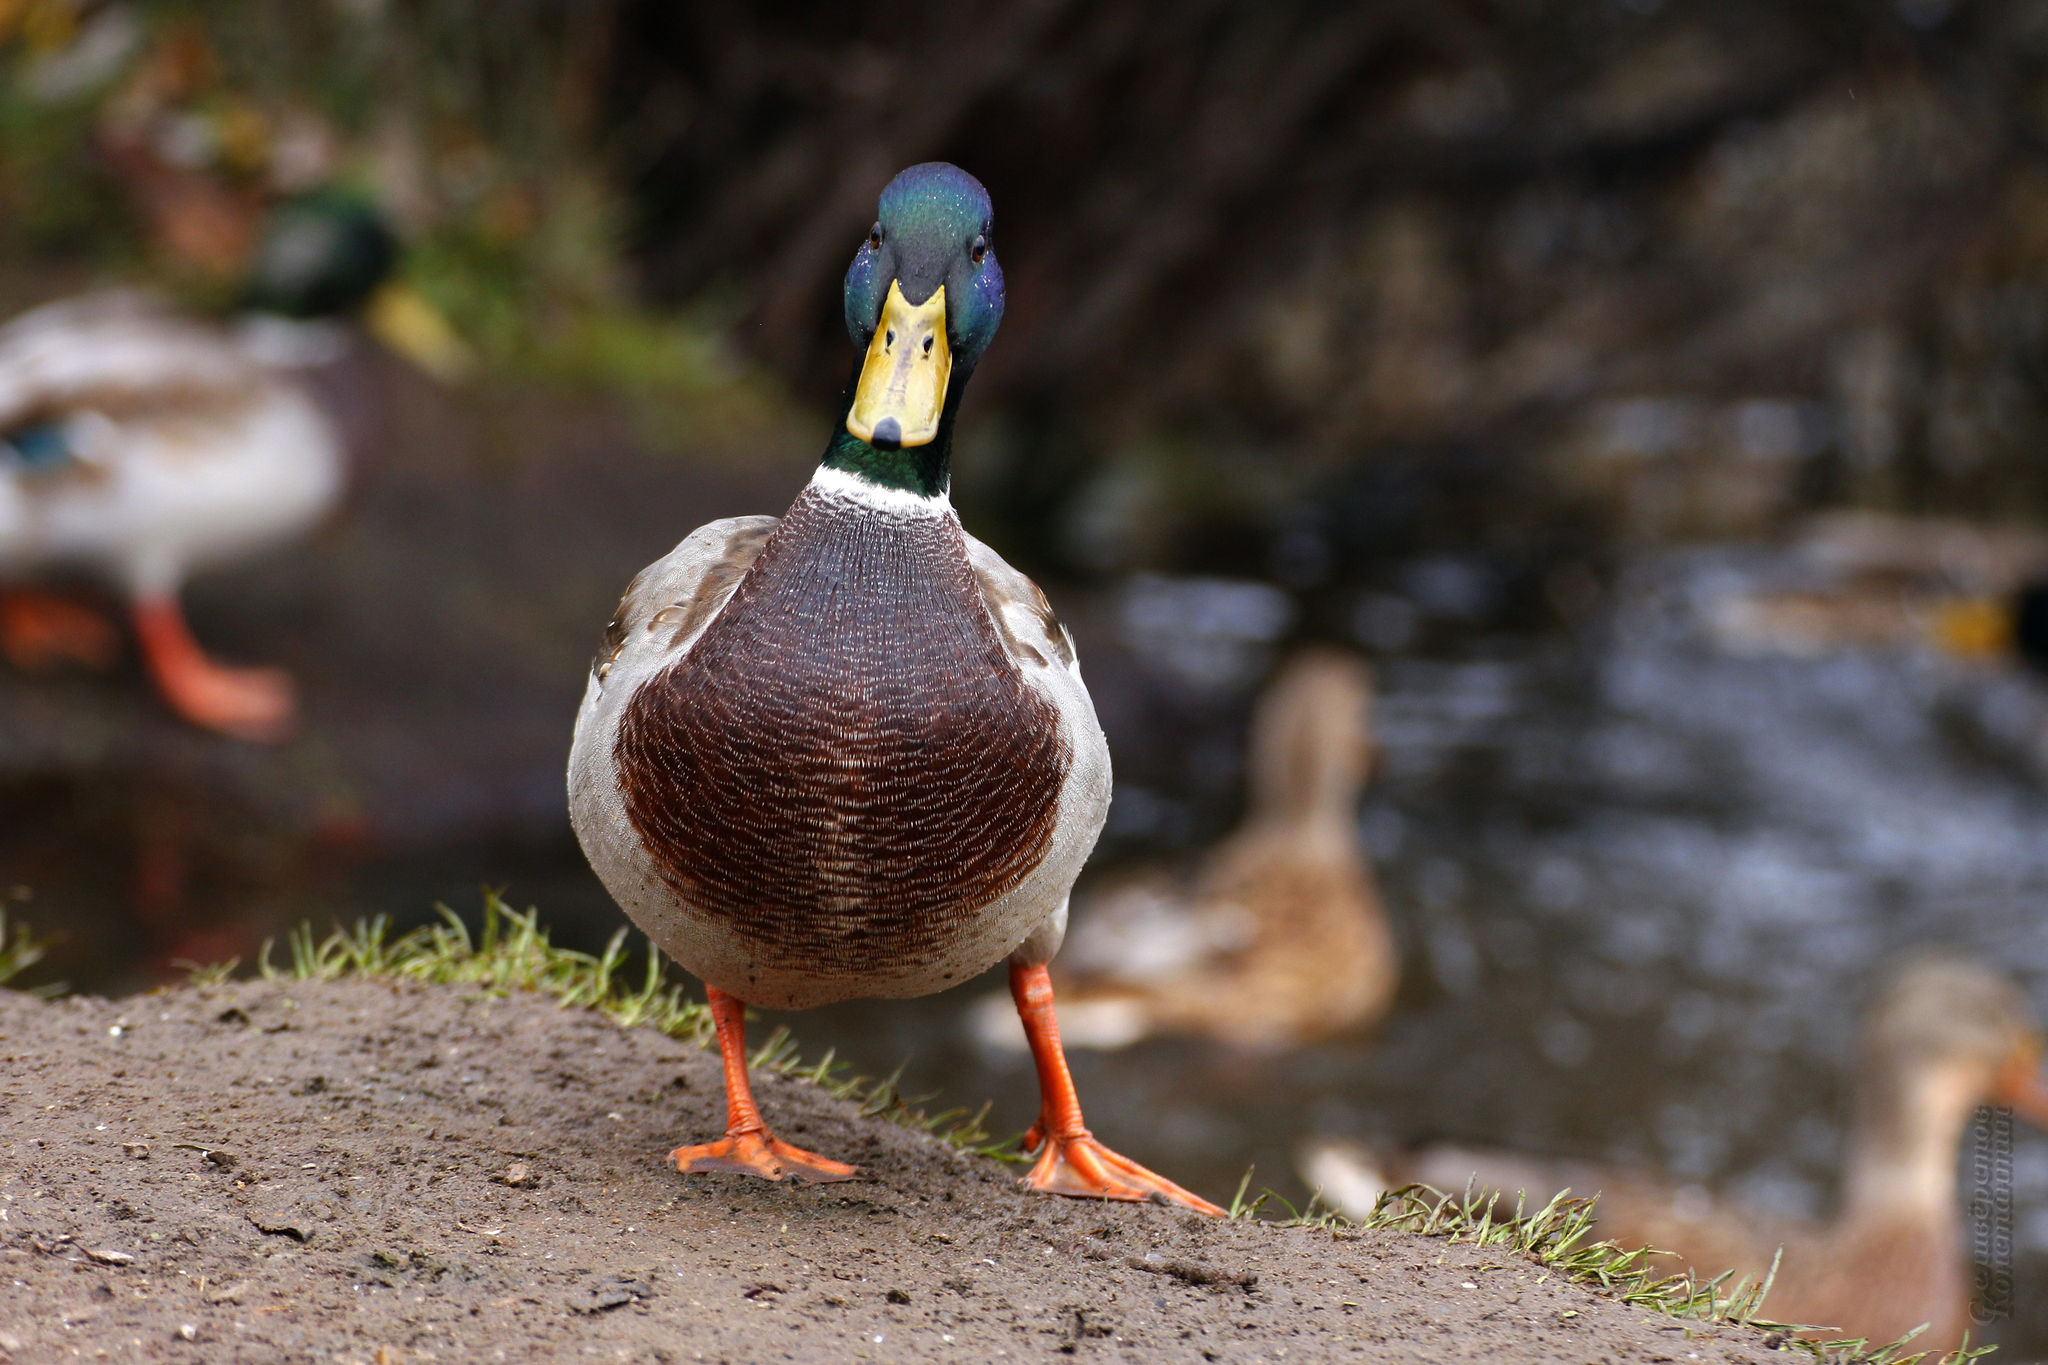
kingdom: Animalia
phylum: Chordata
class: Aves
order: Anseriformes
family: Anatidae
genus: Anas
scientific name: Anas platyrhynchos
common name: Mallard
